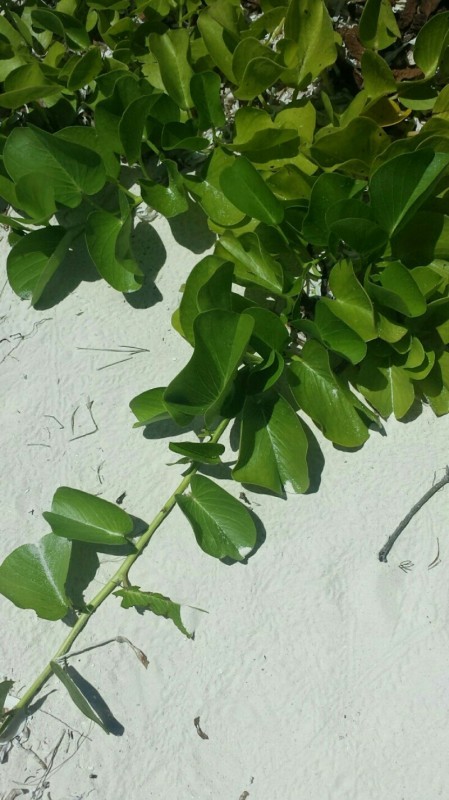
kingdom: Plantae
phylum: Tracheophyta
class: Magnoliopsida
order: Solanales
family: Convolvulaceae
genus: Ipomoea
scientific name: Ipomoea pes-caprae
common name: Beach morning glory
